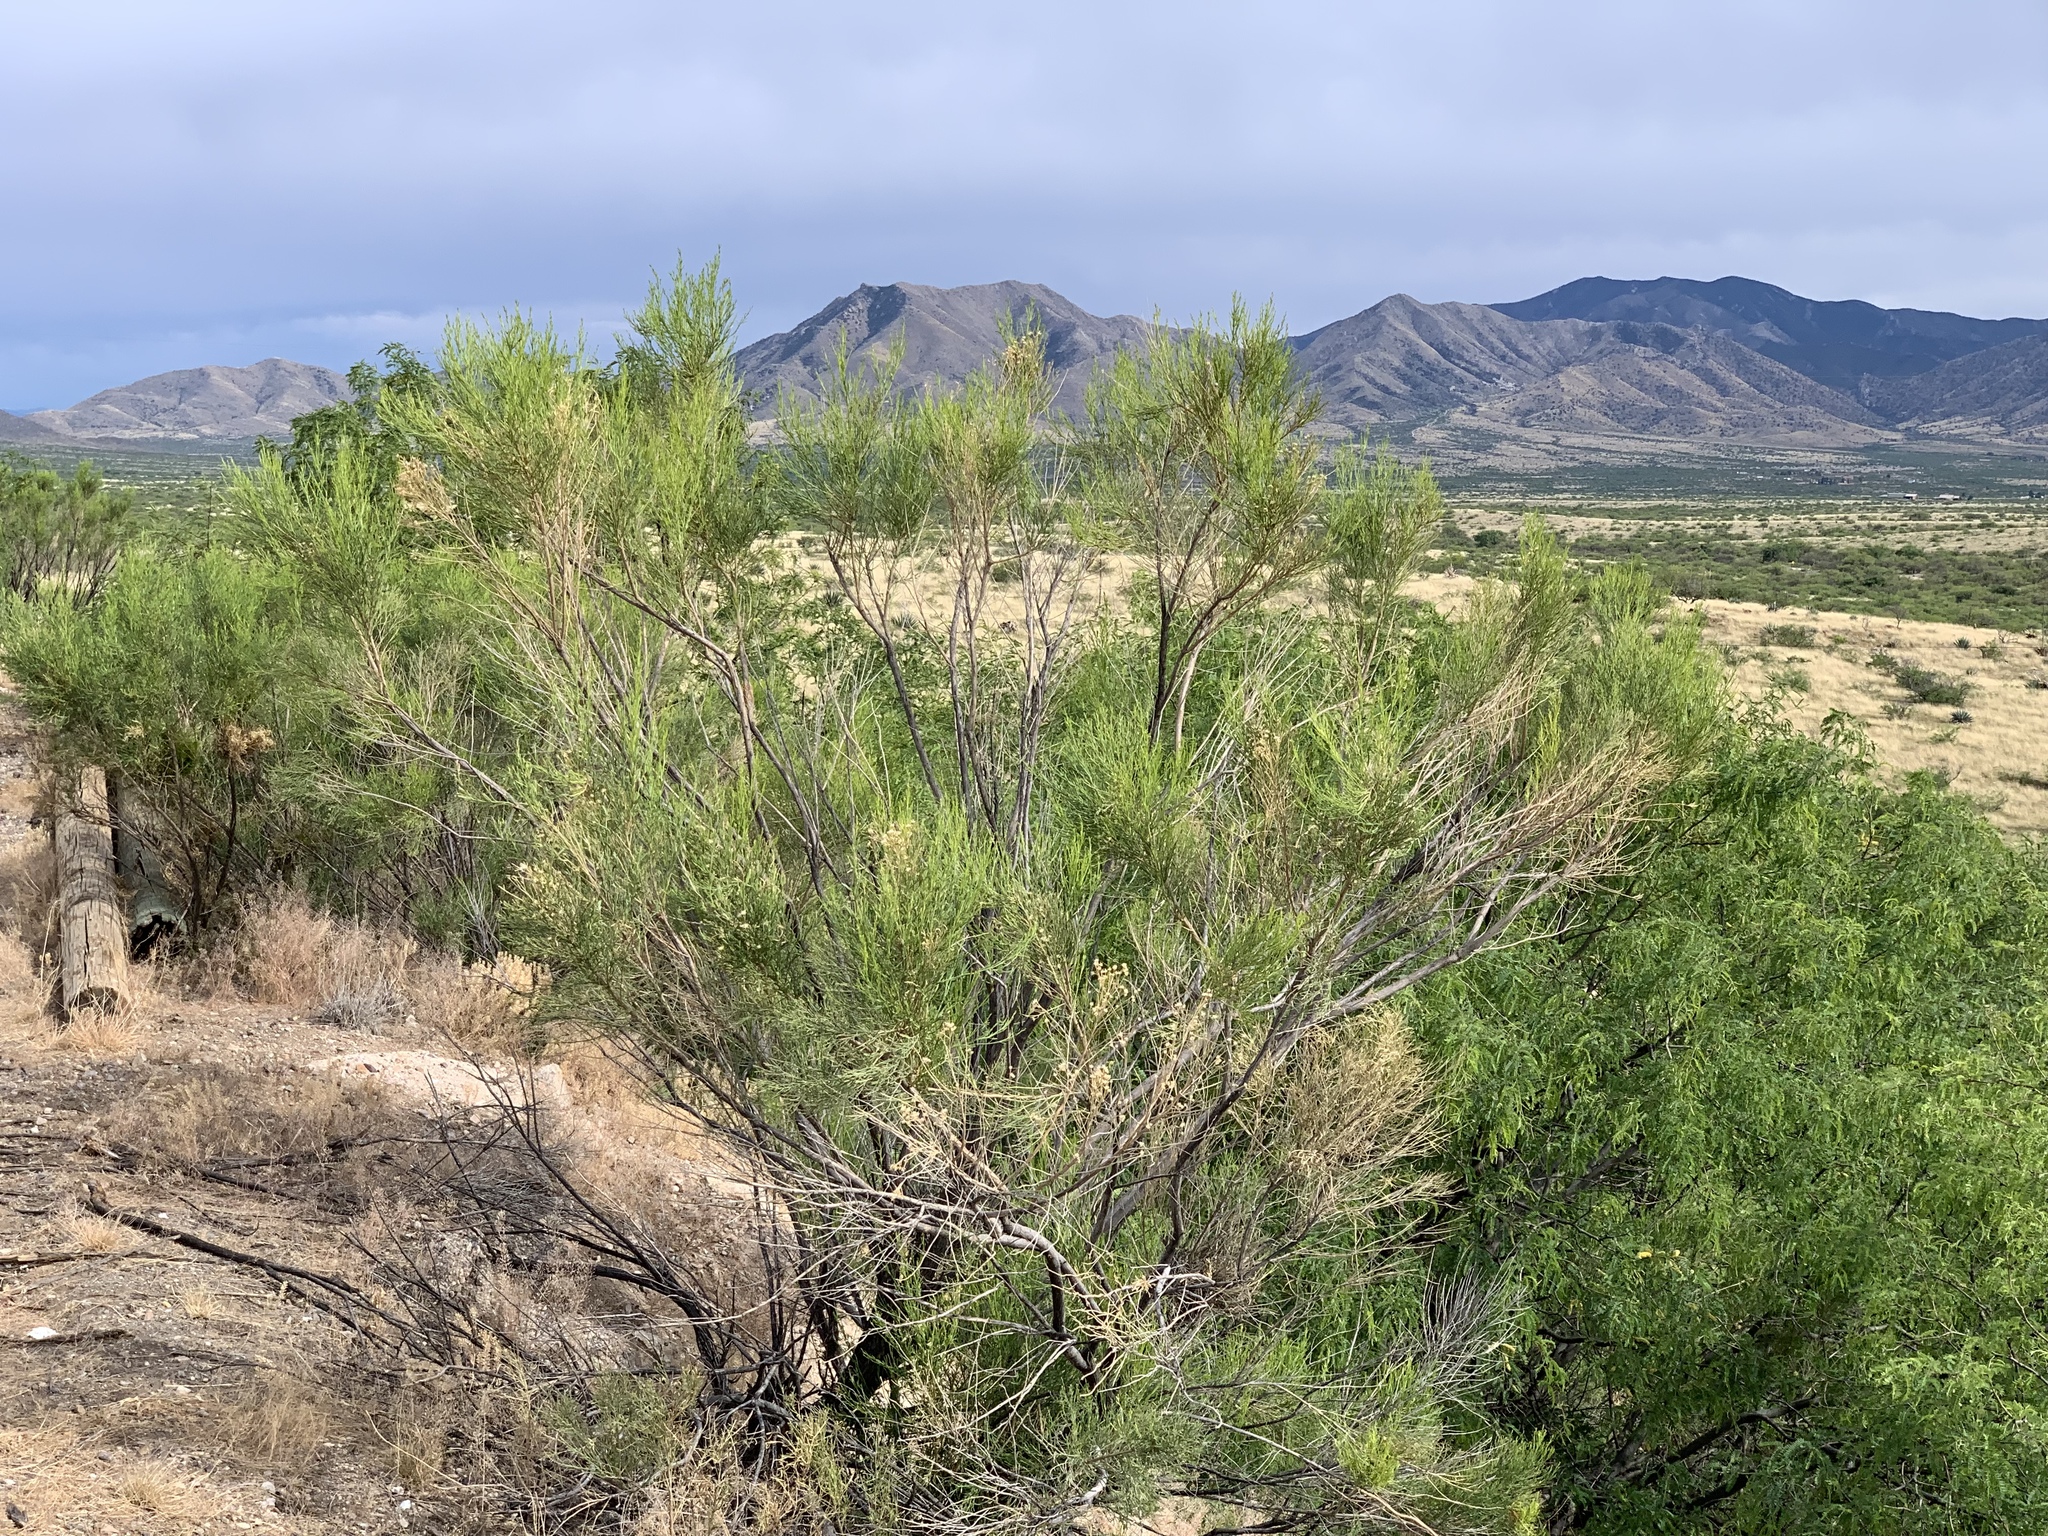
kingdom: Plantae
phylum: Tracheophyta
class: Magnoliopsida
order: Asterales
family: Asteraceae
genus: Baccharis
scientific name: Baccharis sarothroides
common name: Desert-broom
